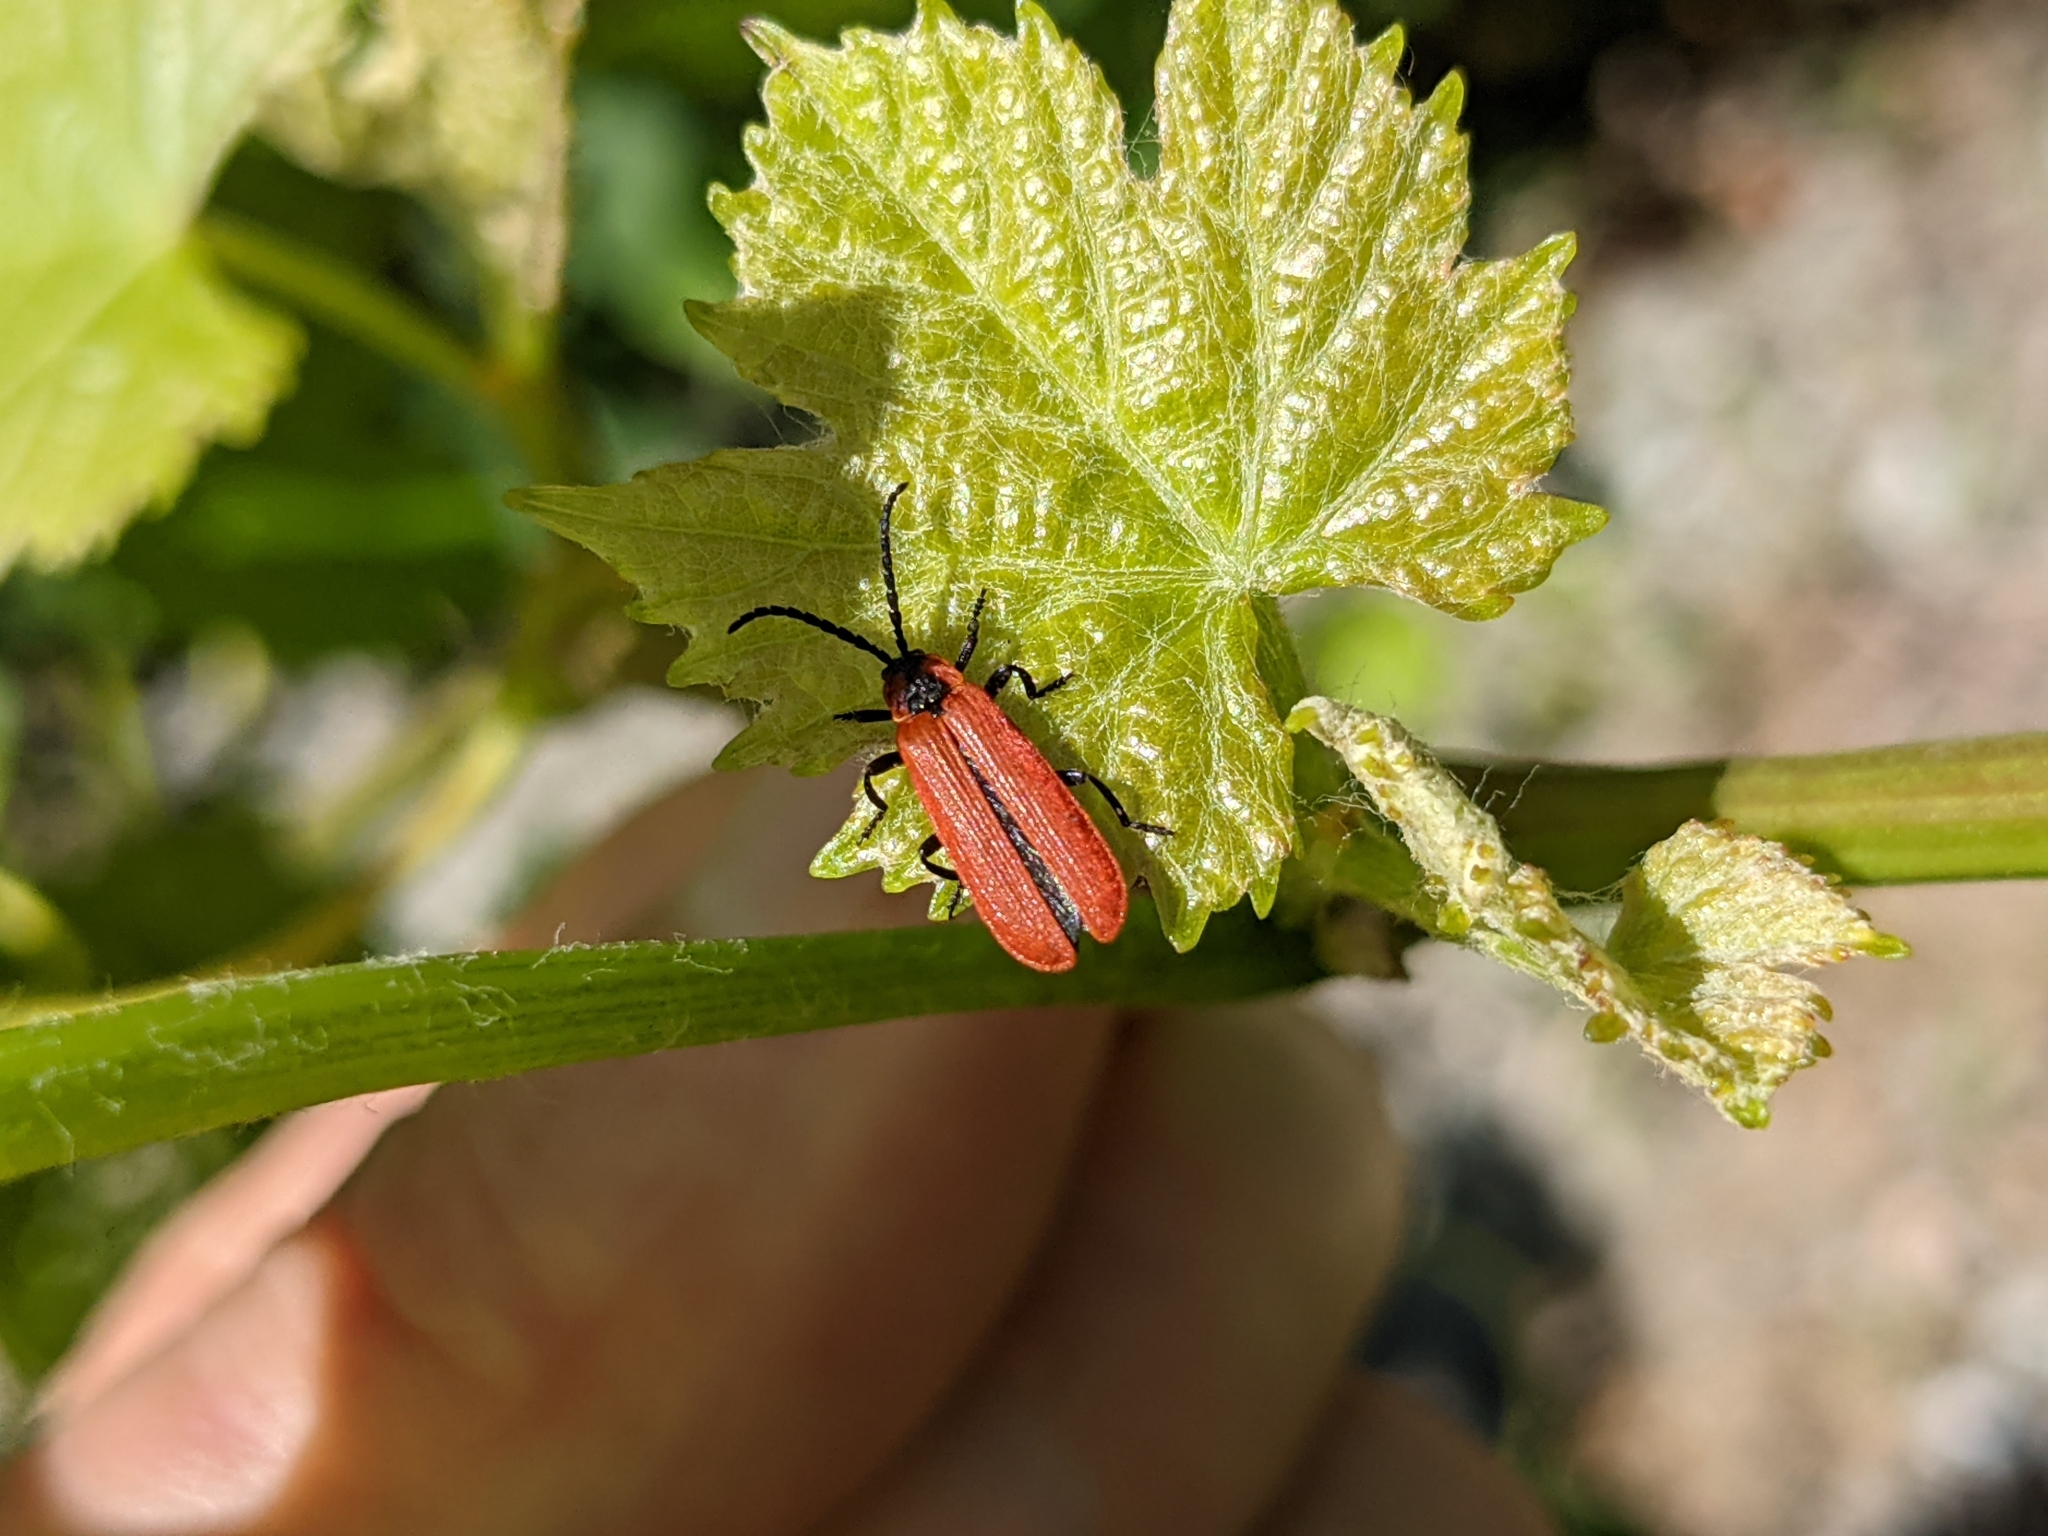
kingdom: Animalia
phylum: Arthropoda
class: Insecta
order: Coleoptera
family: Lycidae
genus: Lygistopterus
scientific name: Lygistopterus sanguineus
